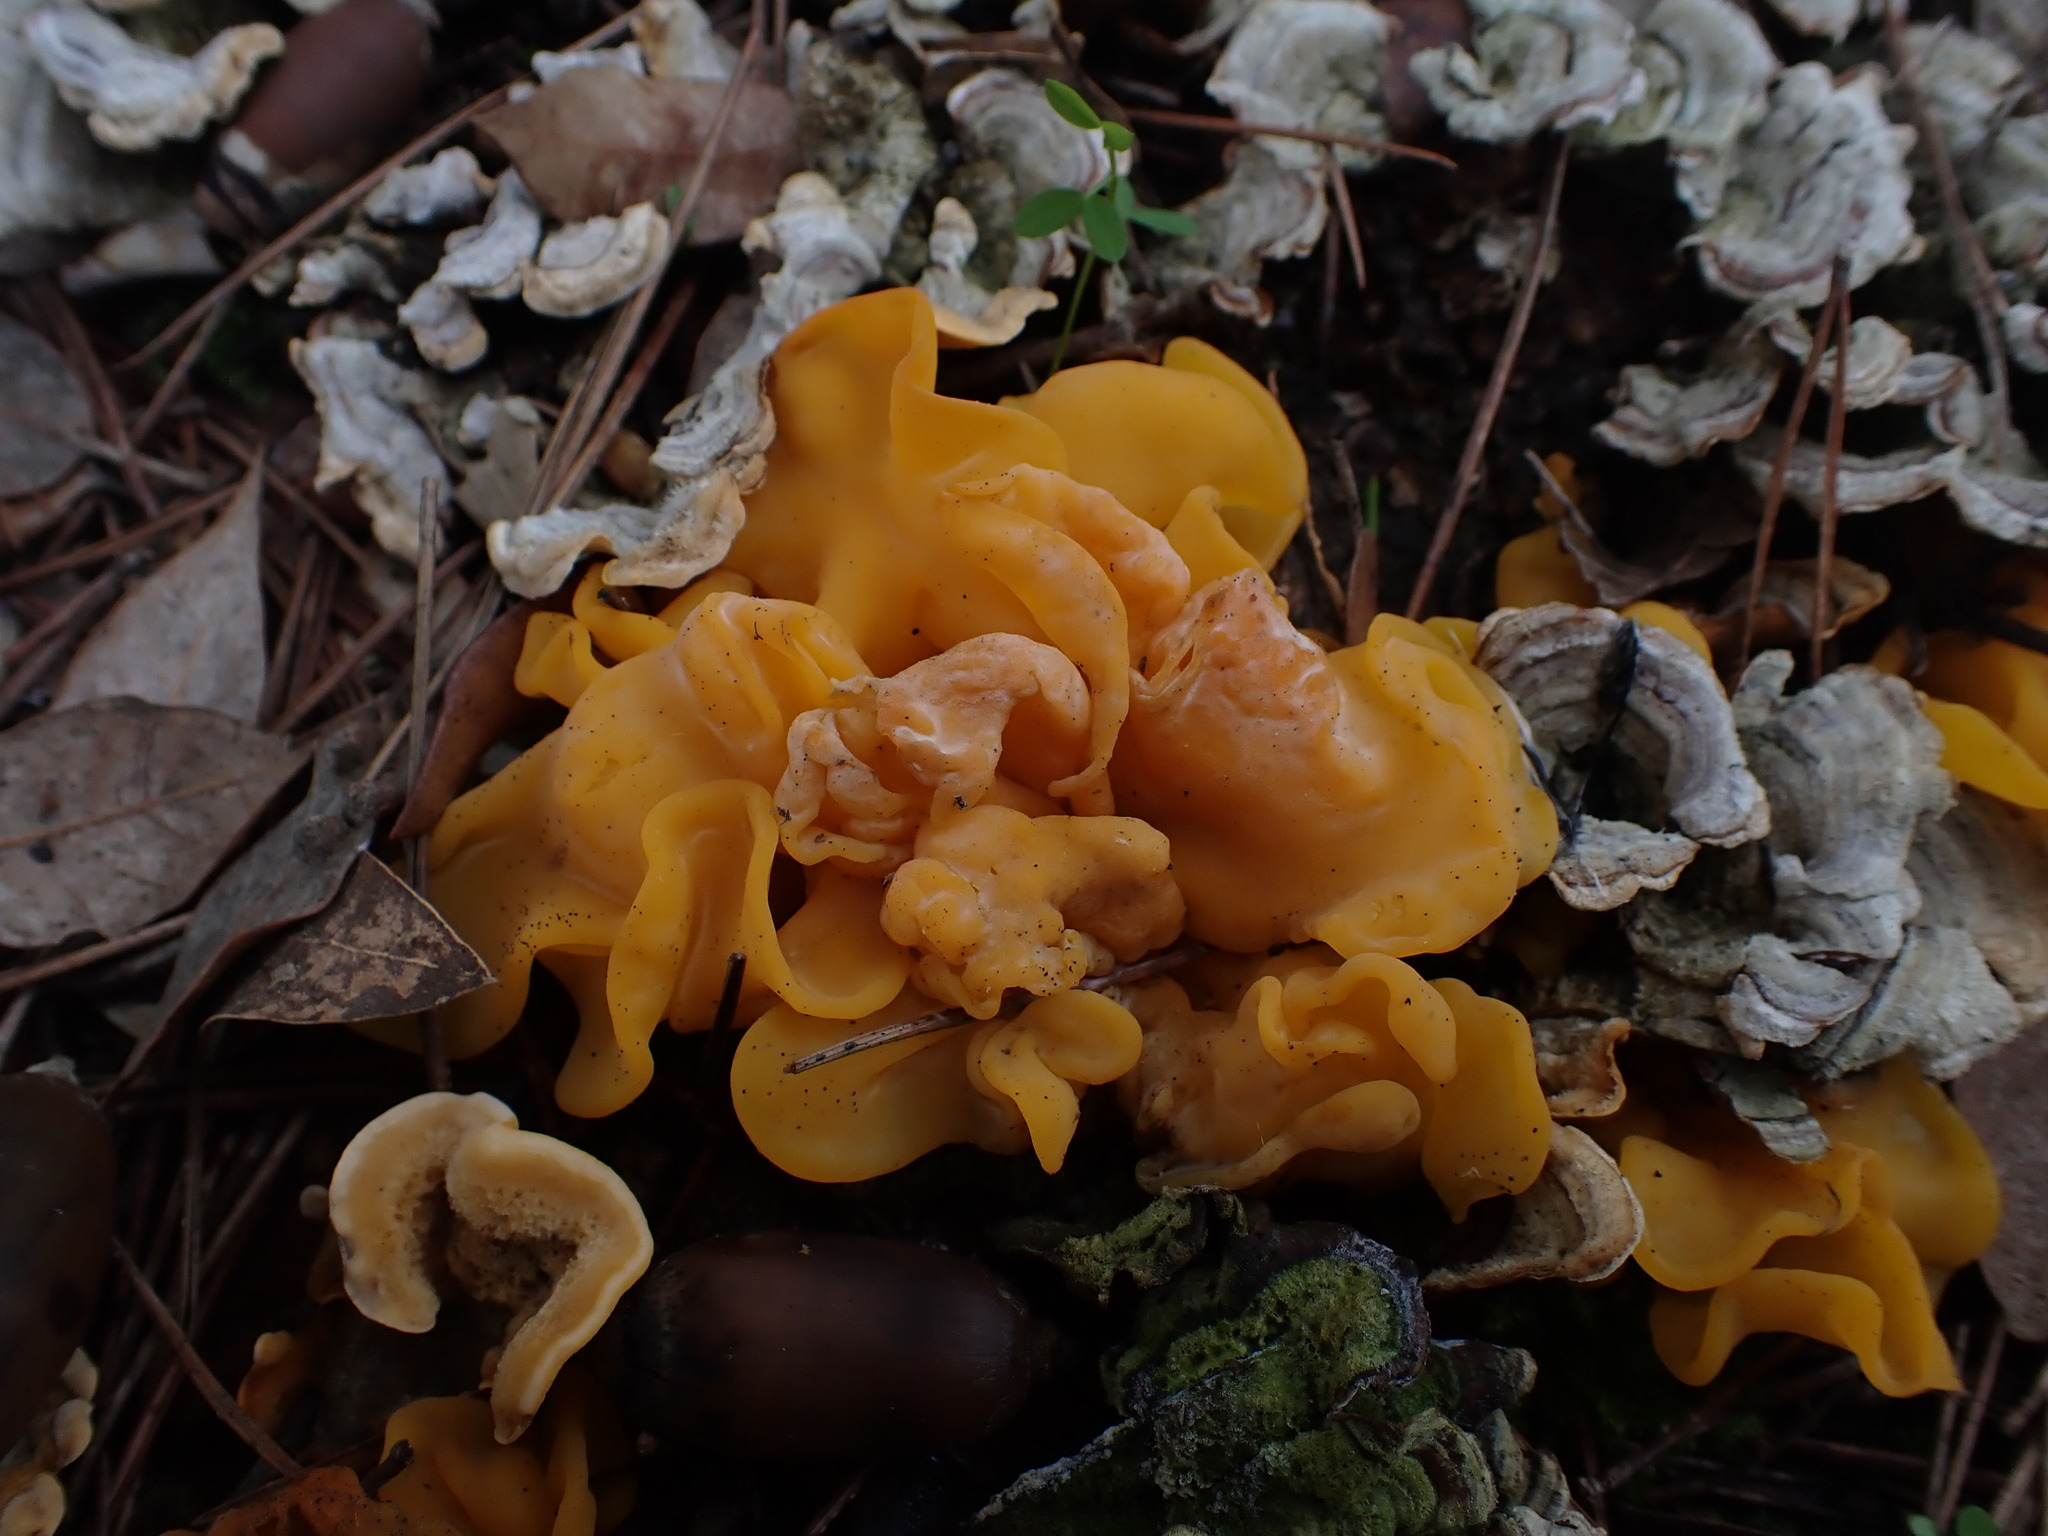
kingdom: Fungi
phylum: Basidiomycota
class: Tremellomycetes
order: Tremellales
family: Naemateliaceae
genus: Naematelia
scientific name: Naematelia aurantia
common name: Golden ear
